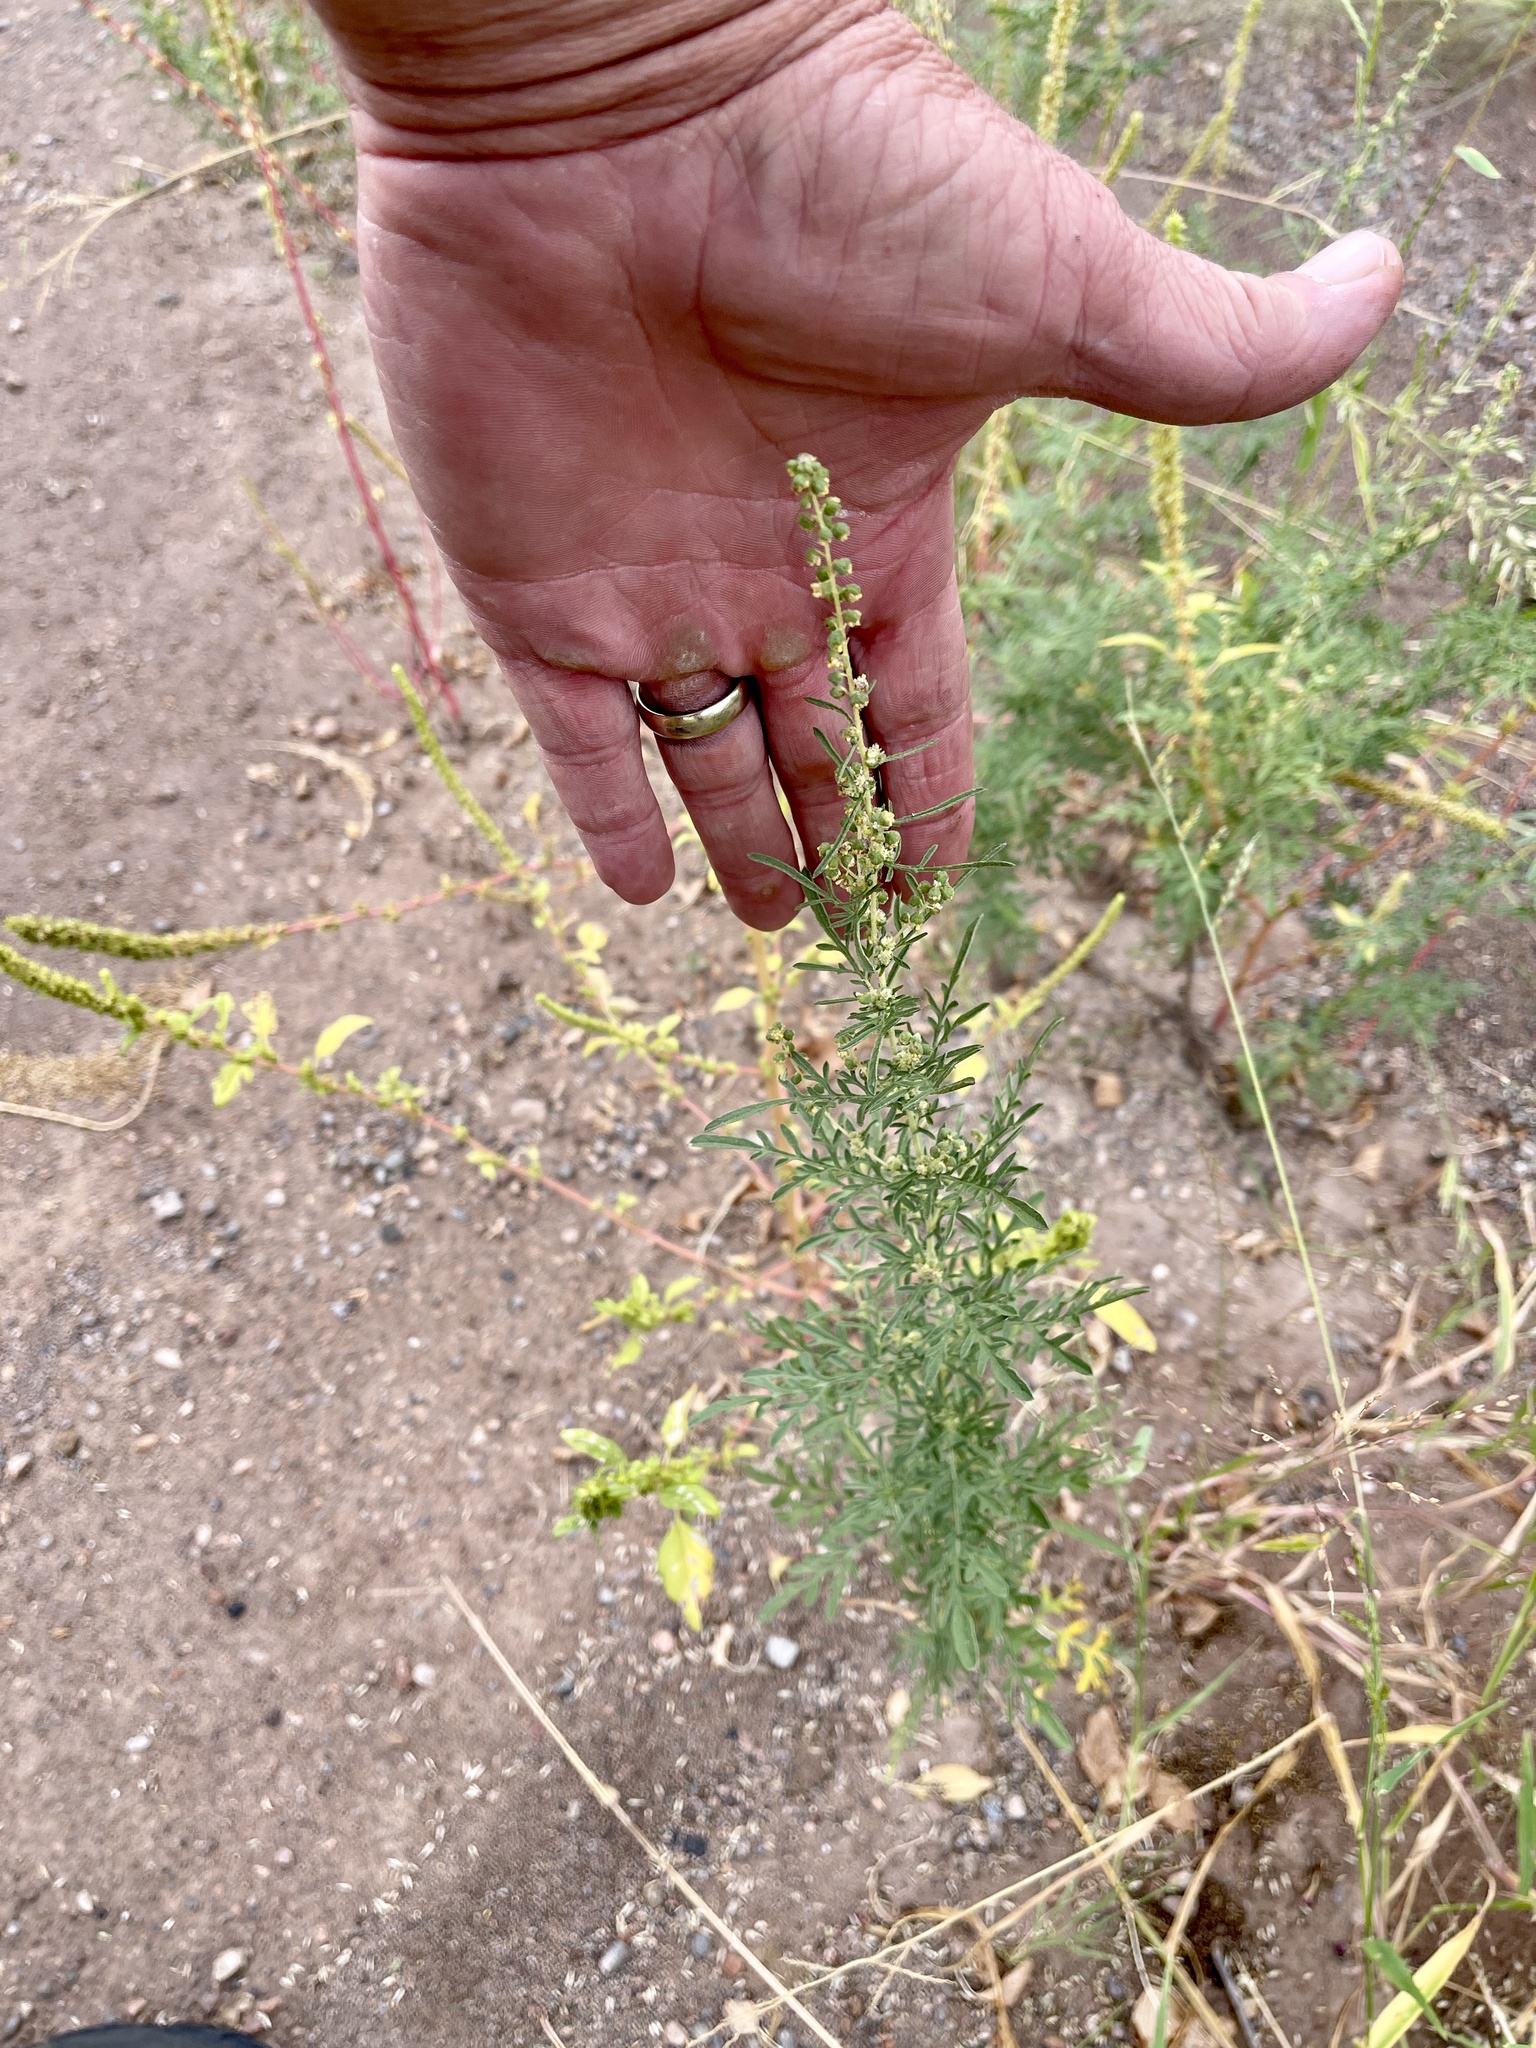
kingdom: Plantae
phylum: Tracheophyta
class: Magnoliopsida
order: Asterales
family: Asteraceae
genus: Ambrosia
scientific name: Ambrosia confertiflora
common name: Bur ragweed
